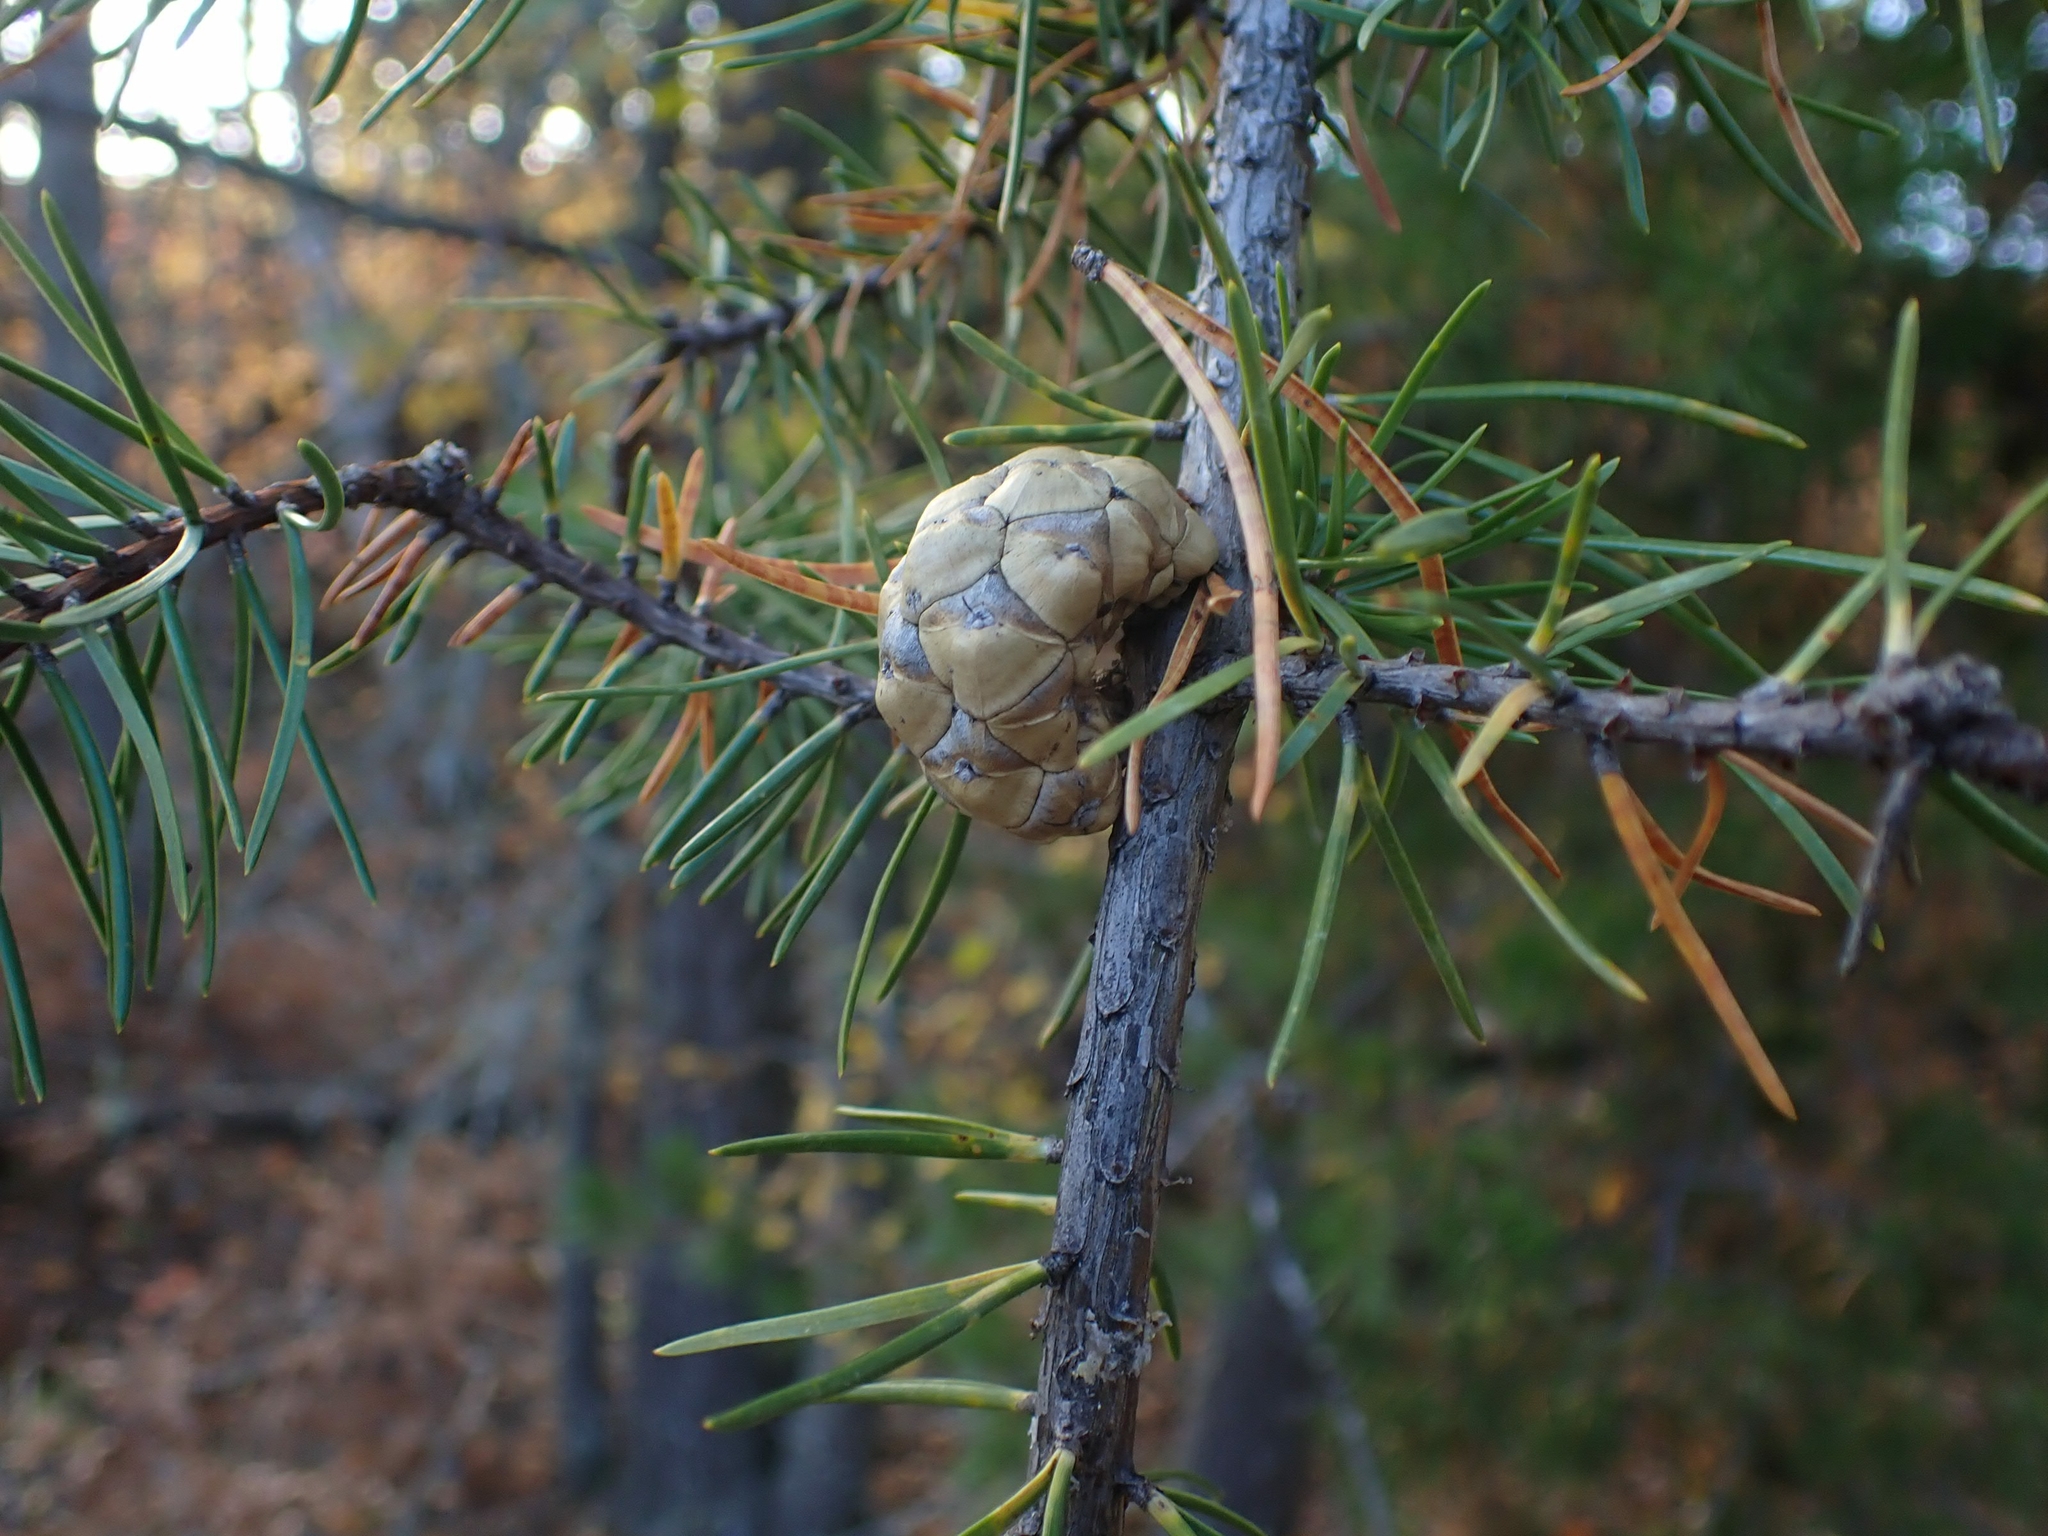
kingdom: Plantae
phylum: Tracheophyta
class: Pinopsida
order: Pinales
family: Pinaceae
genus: Pinus
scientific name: Pinus banksiana
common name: Jack pine
